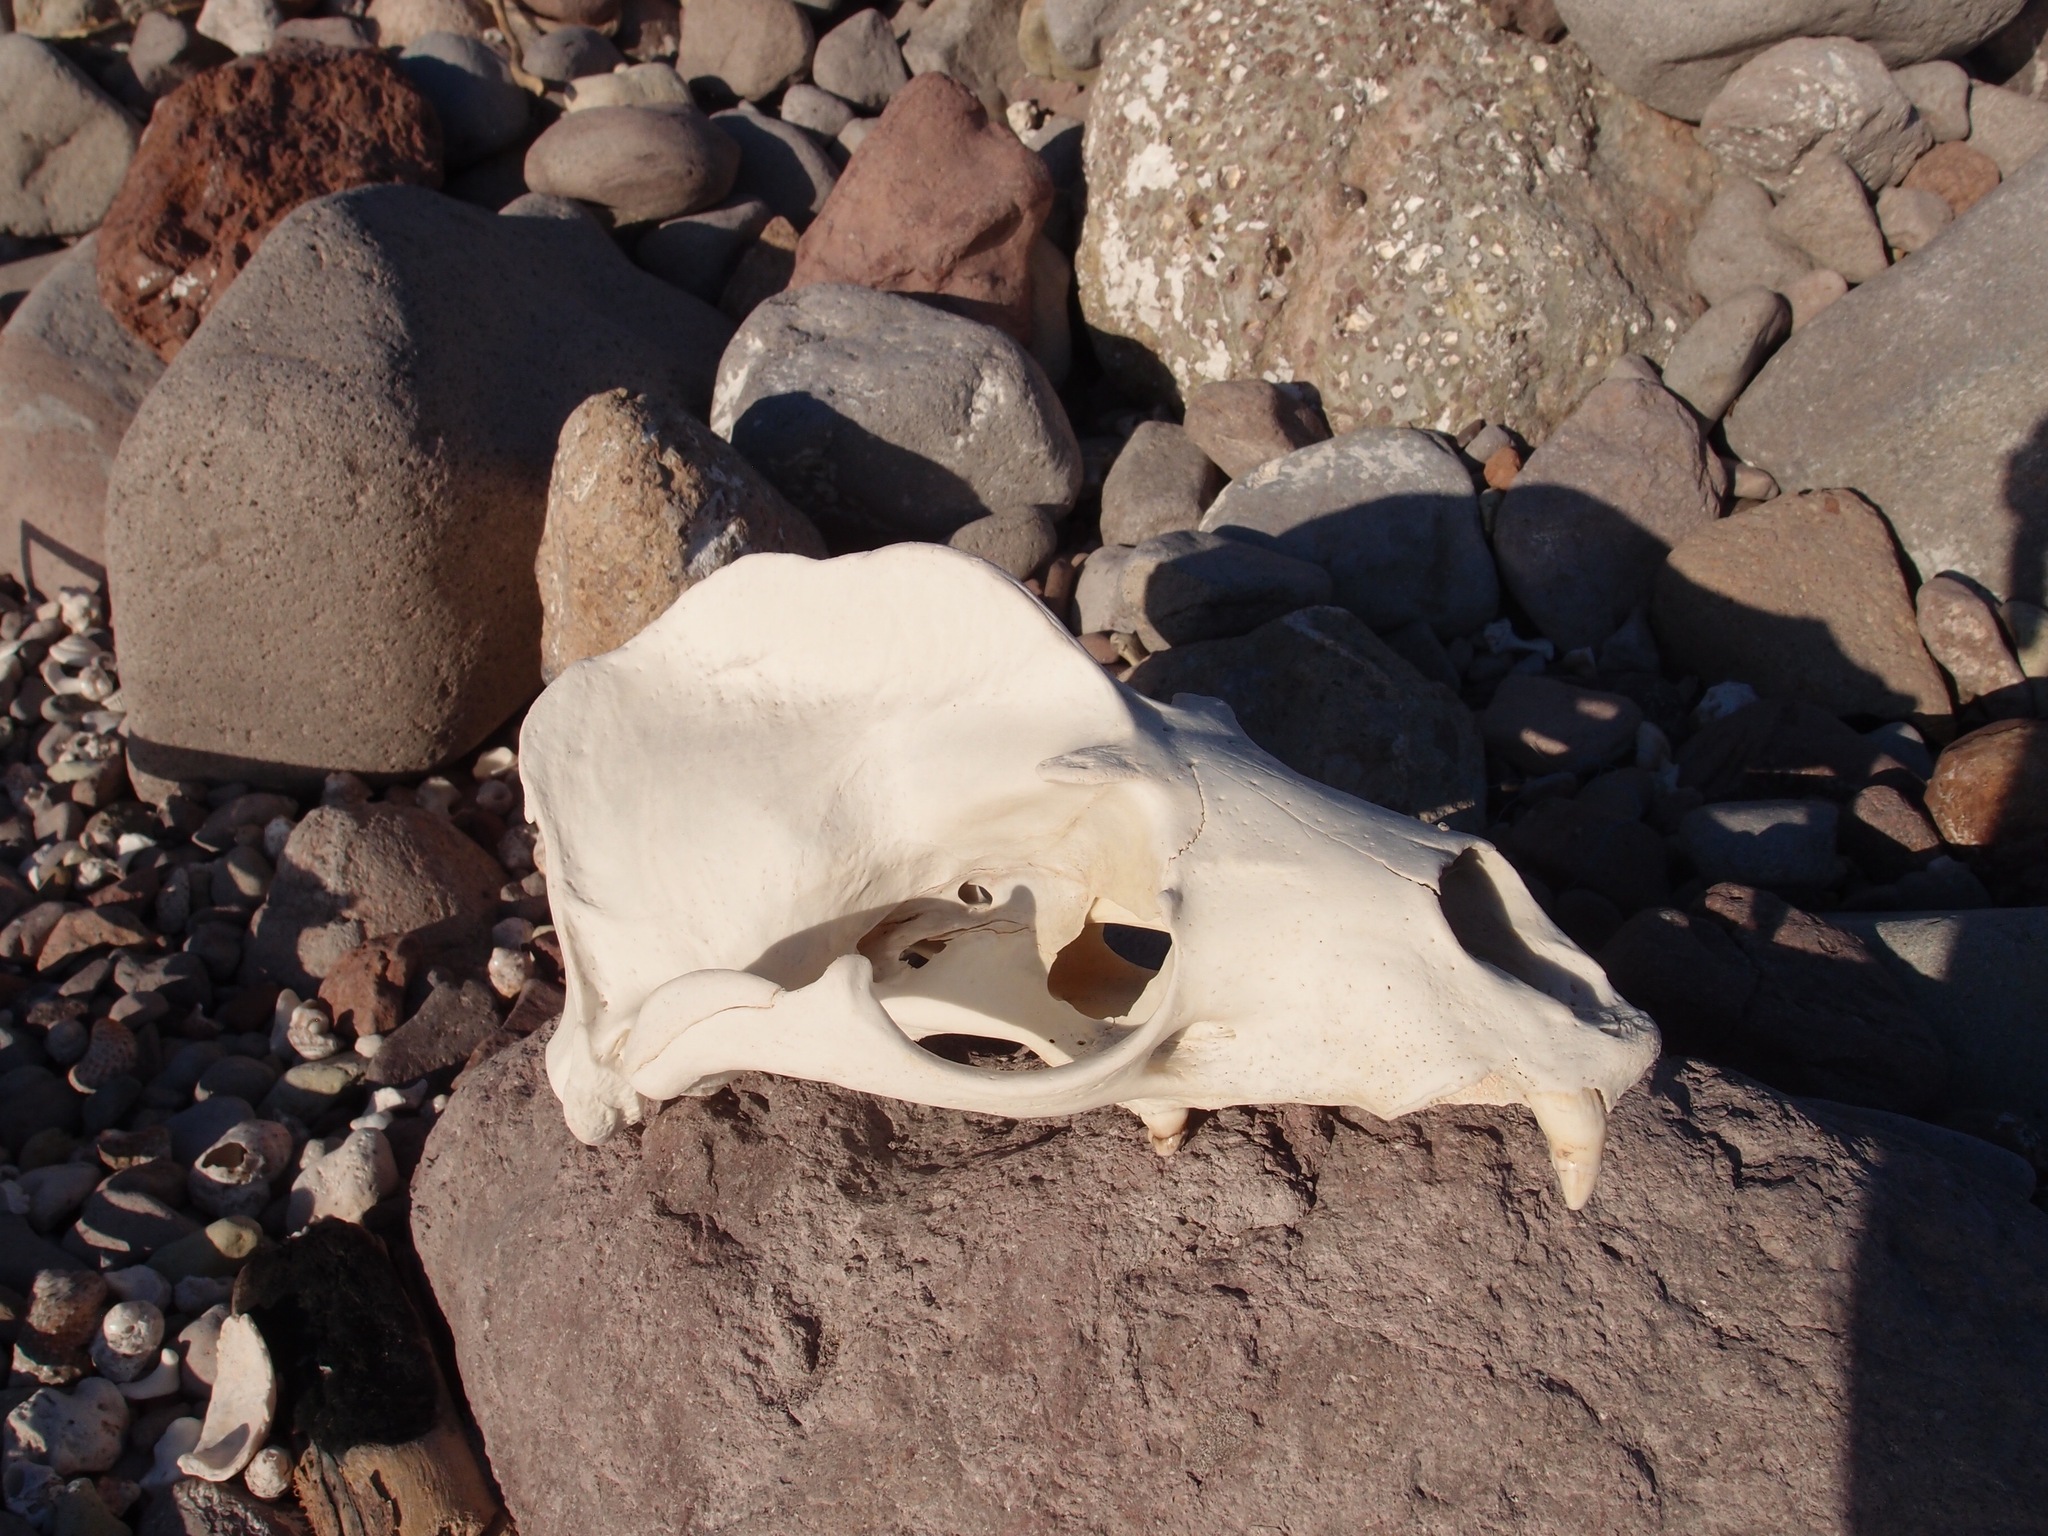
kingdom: Animalia
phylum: Chordata
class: Mammalia
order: Carnivora
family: Otariidae
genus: Zalophus
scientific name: Zalophus californianus
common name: California sea lion
